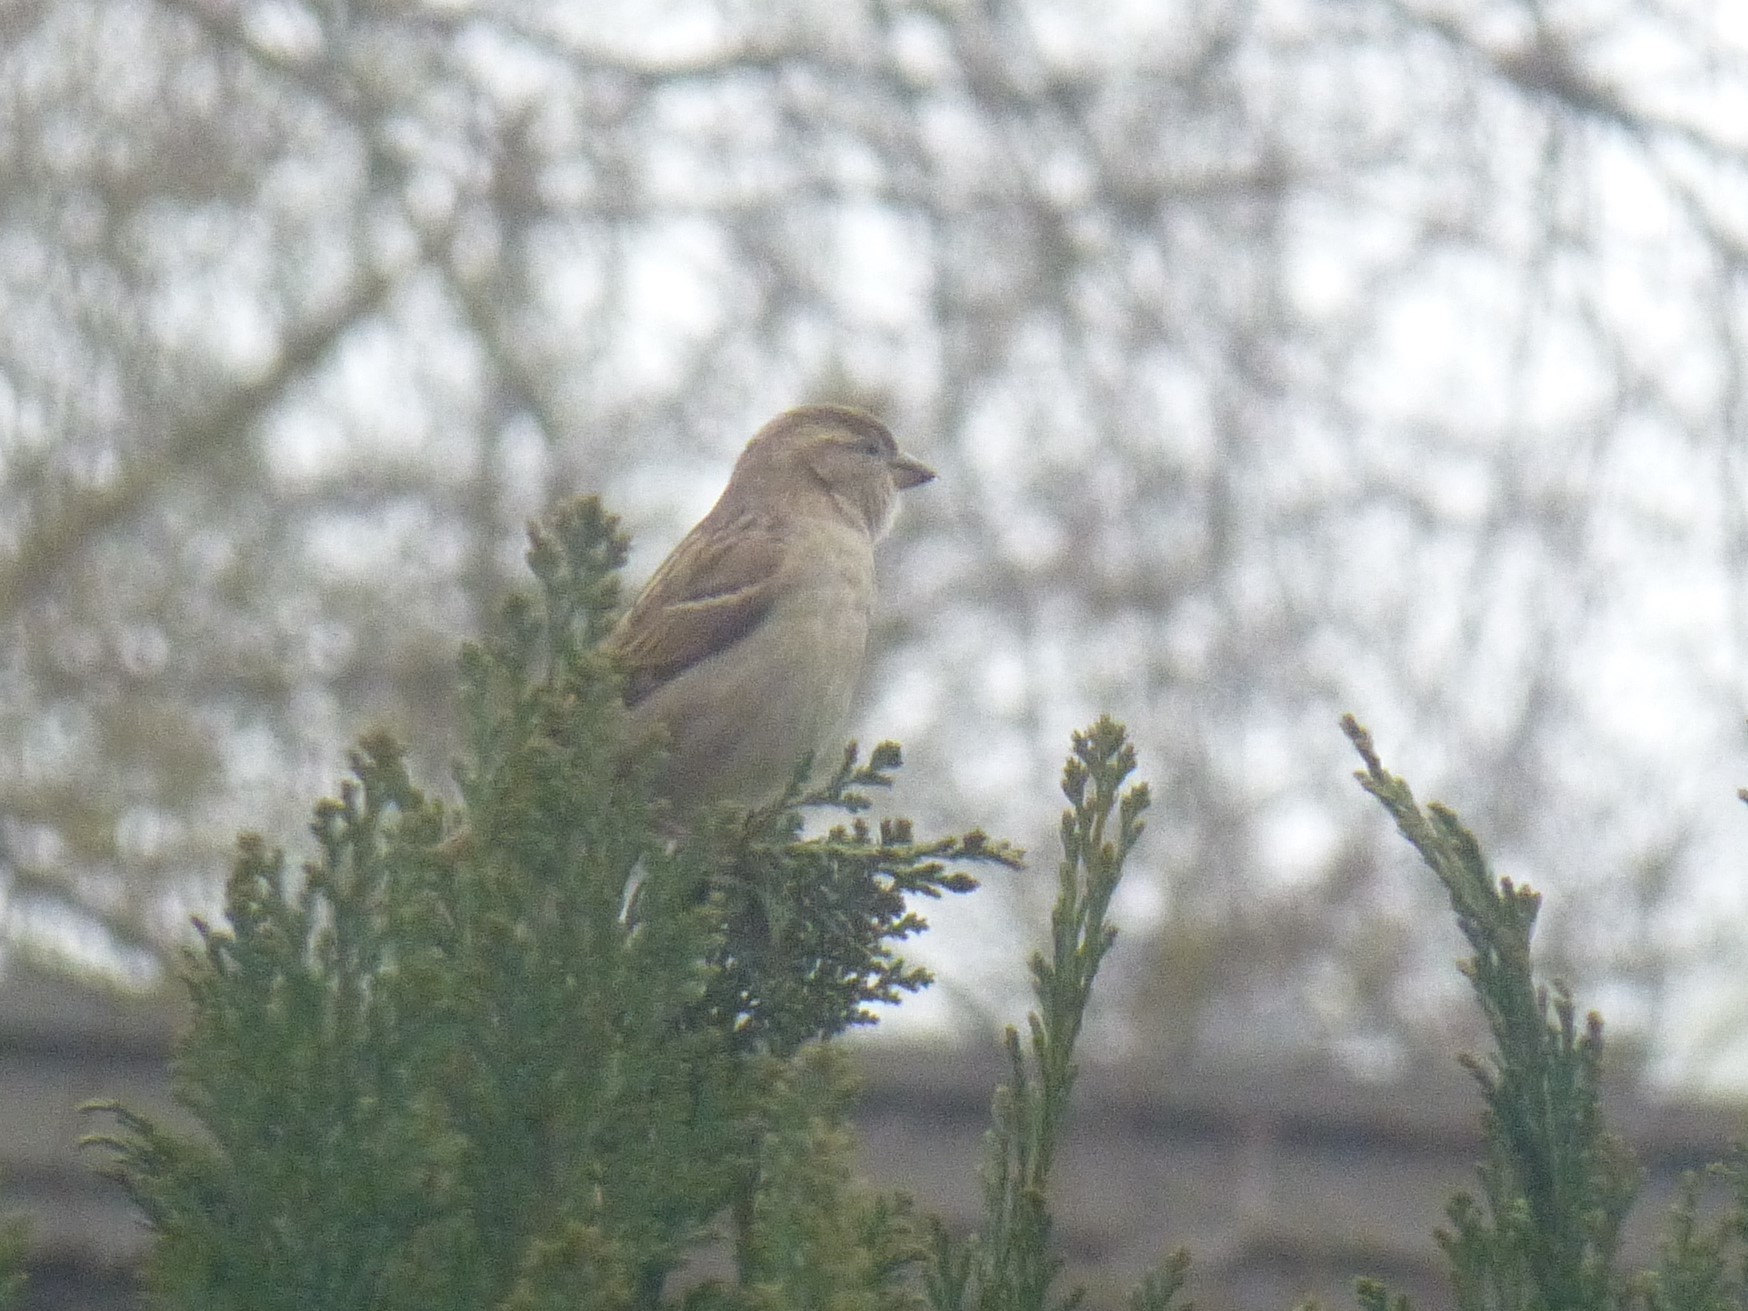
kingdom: Animalia
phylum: Chordata
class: Aves
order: Passeriformes
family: Passeridae
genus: Passer
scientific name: Passer domesticus
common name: House sparrow
